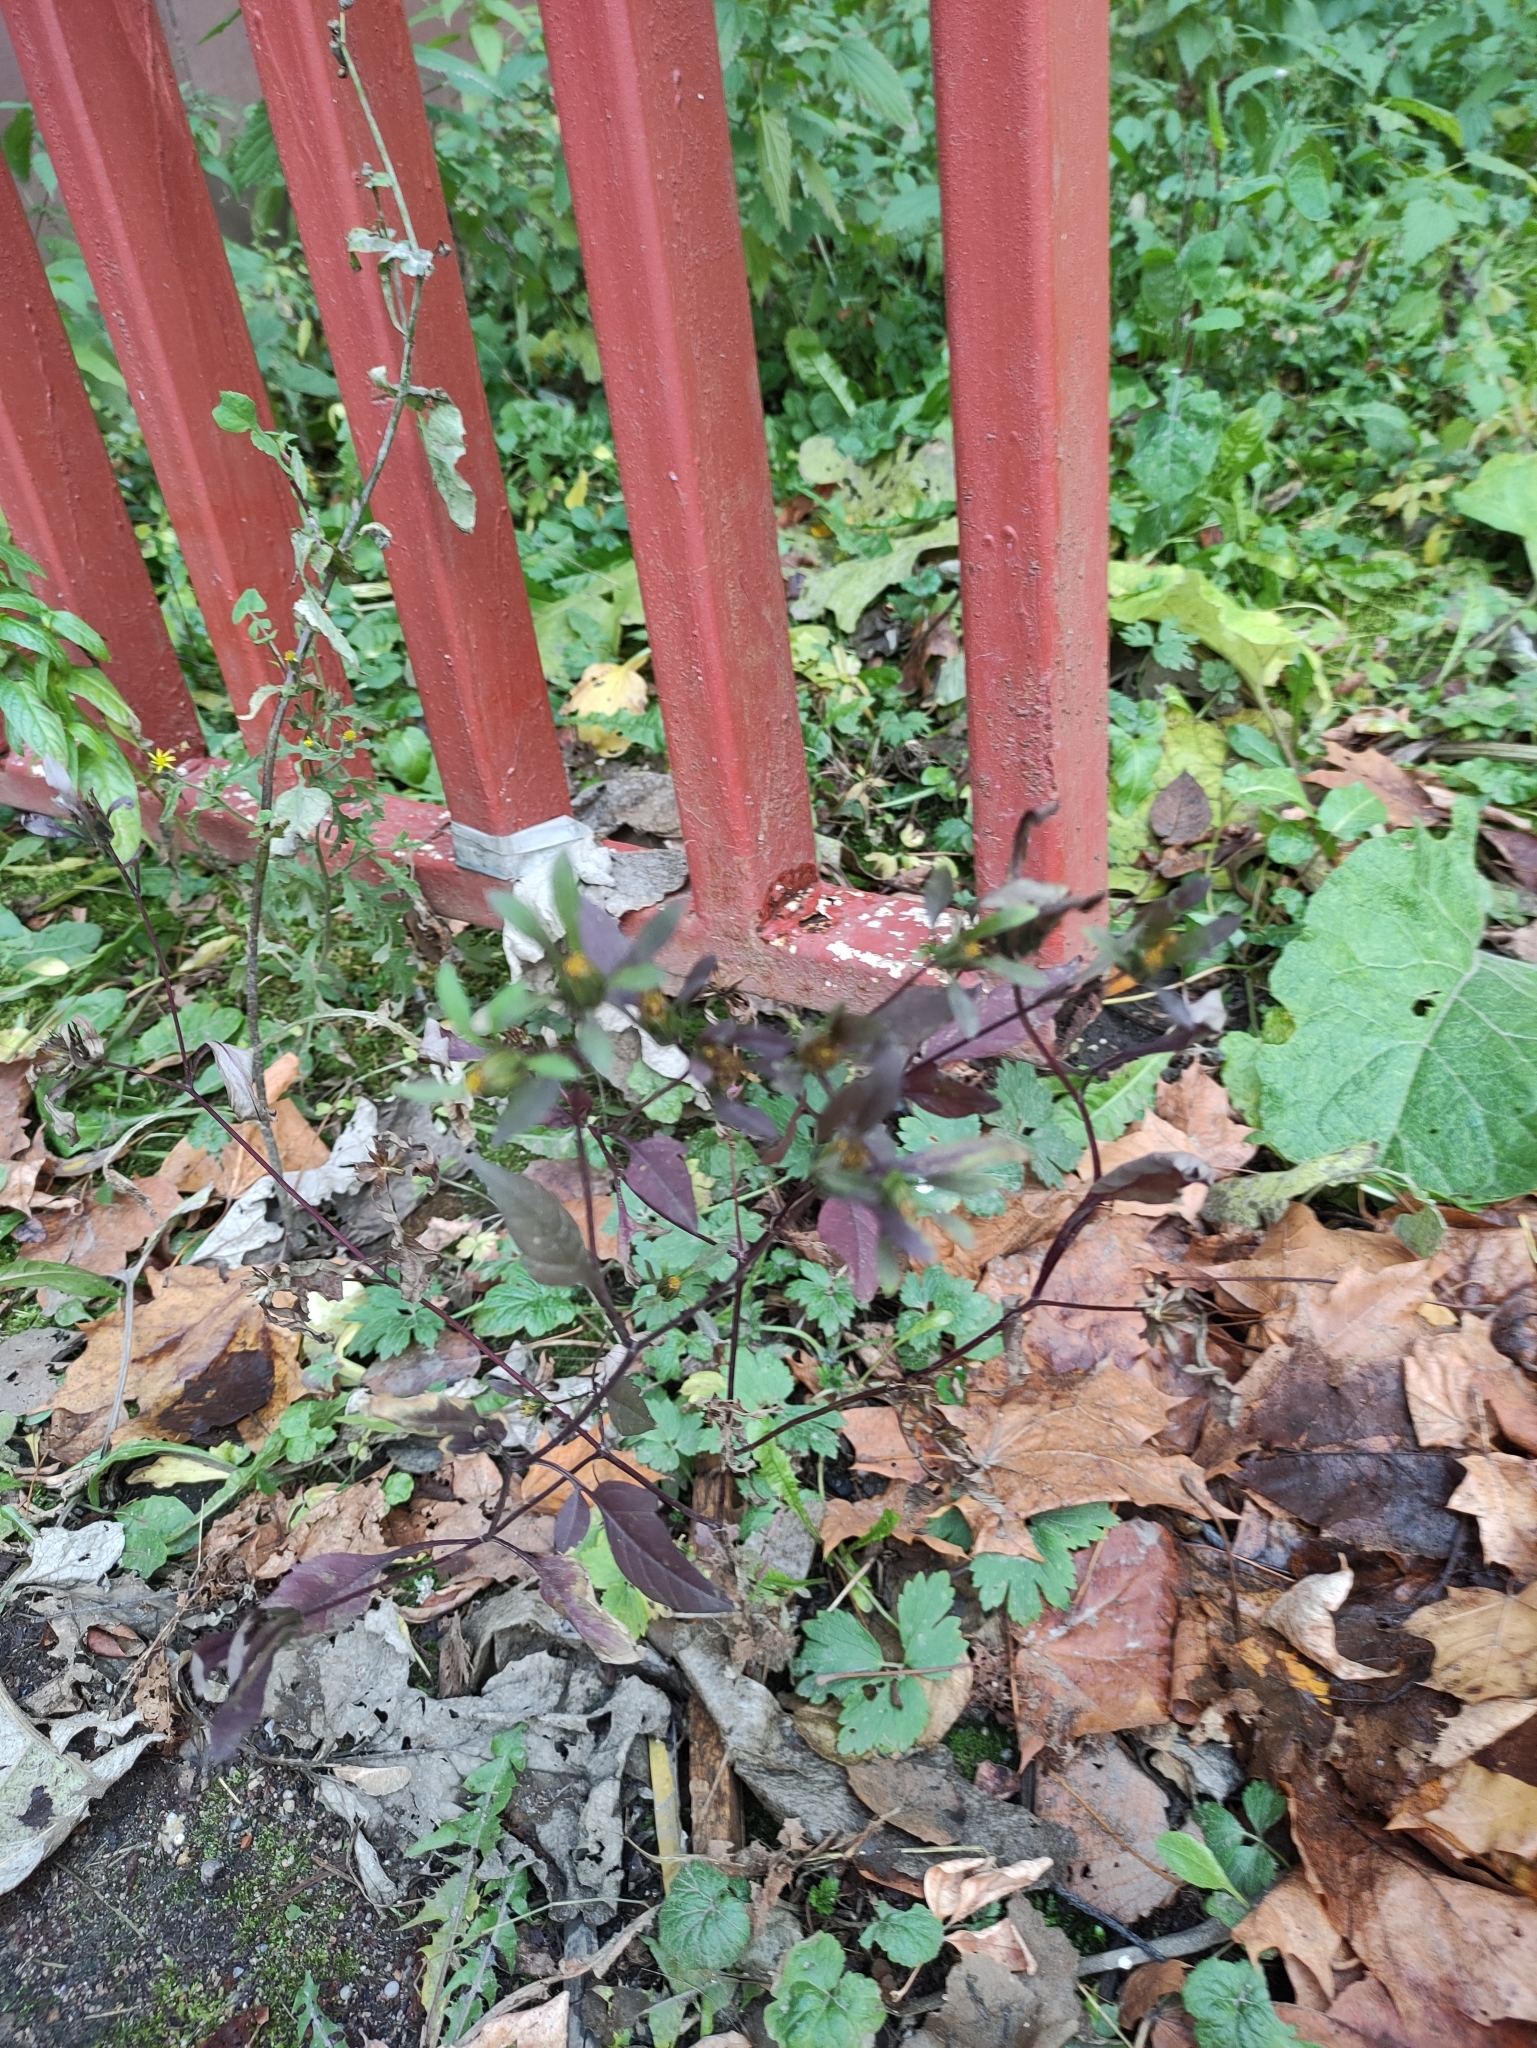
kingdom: Plantae
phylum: Tracheophyta
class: Magnoliopsida
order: Asterales
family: Asteraceae
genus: Bidens
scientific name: Bidens frondosa
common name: Beggarticks
